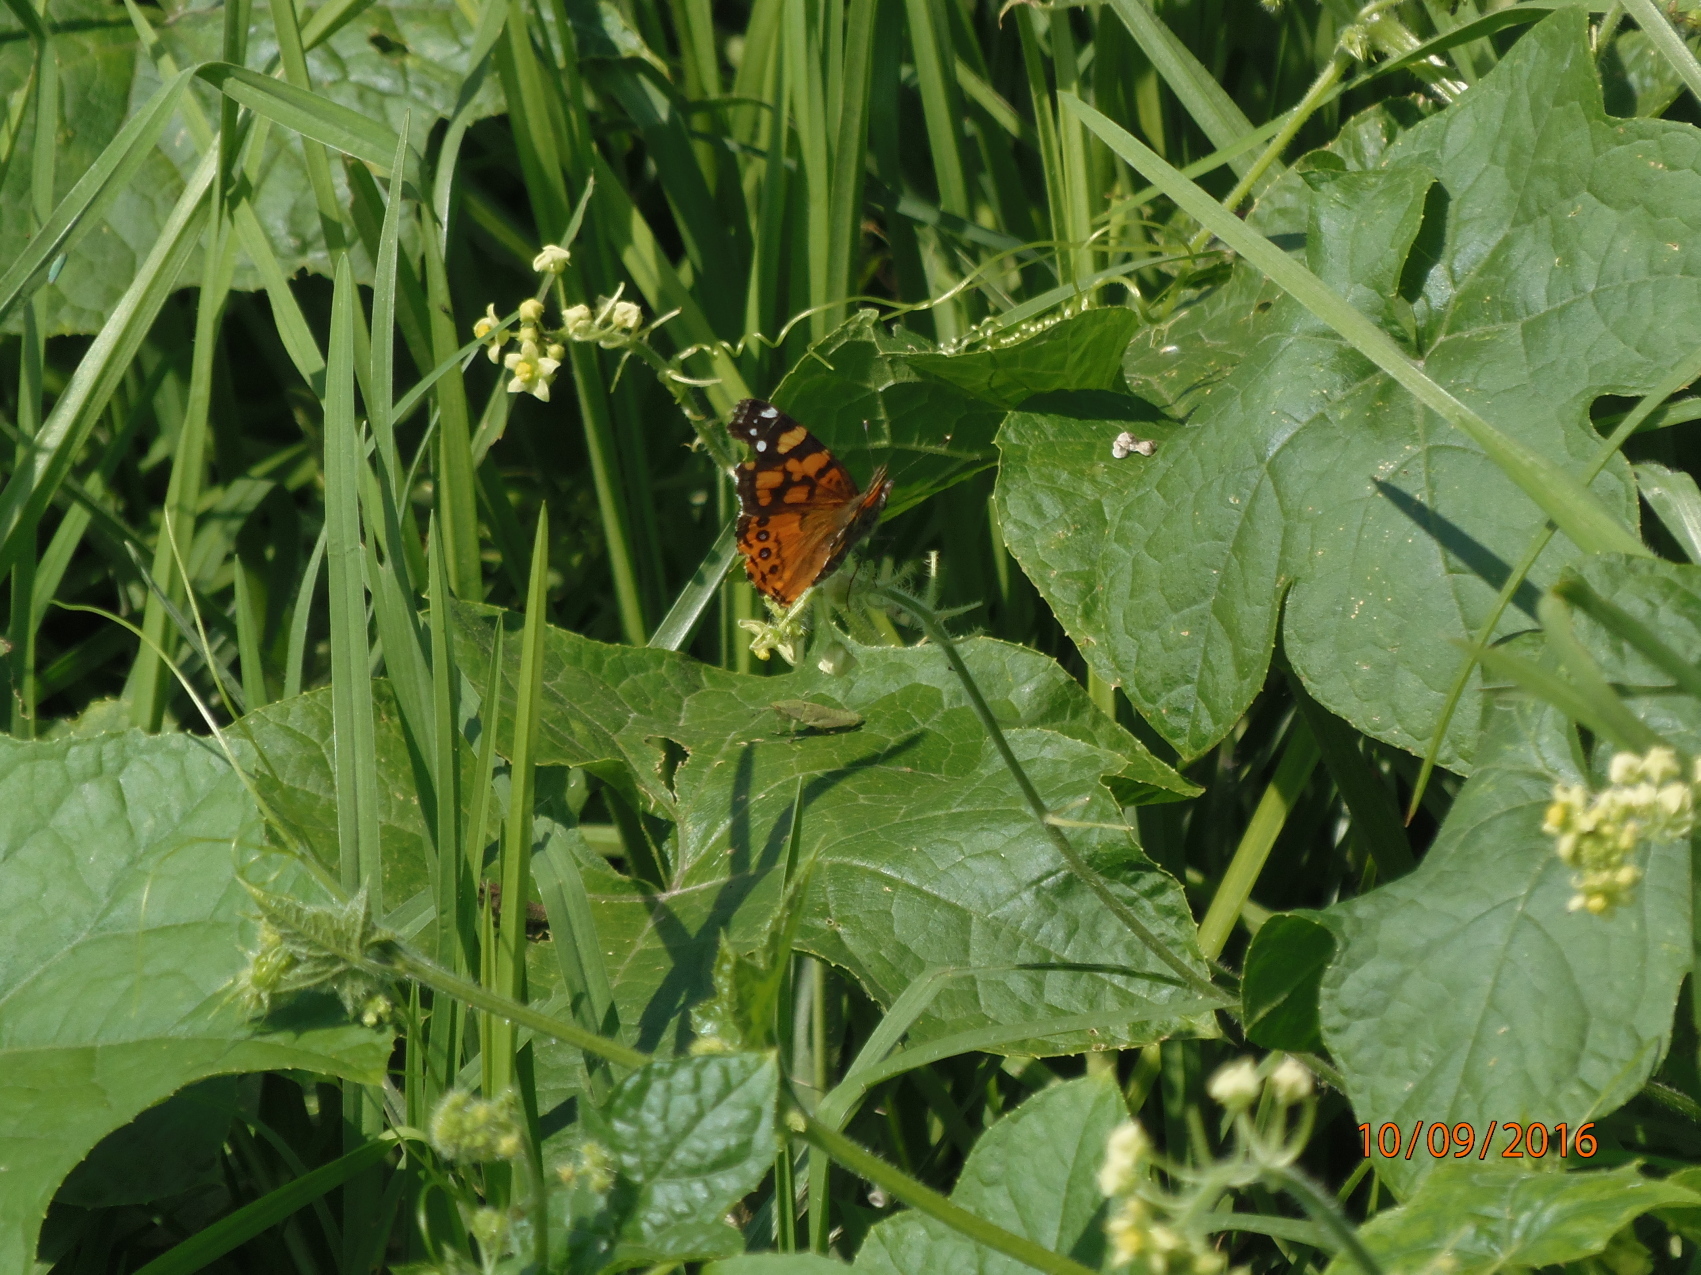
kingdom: Animalia
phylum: Arthropoda
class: Insecta
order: Lepidoptera
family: Nymphalidae
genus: Vanessa
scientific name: Vanessa annabella
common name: West coast lady
